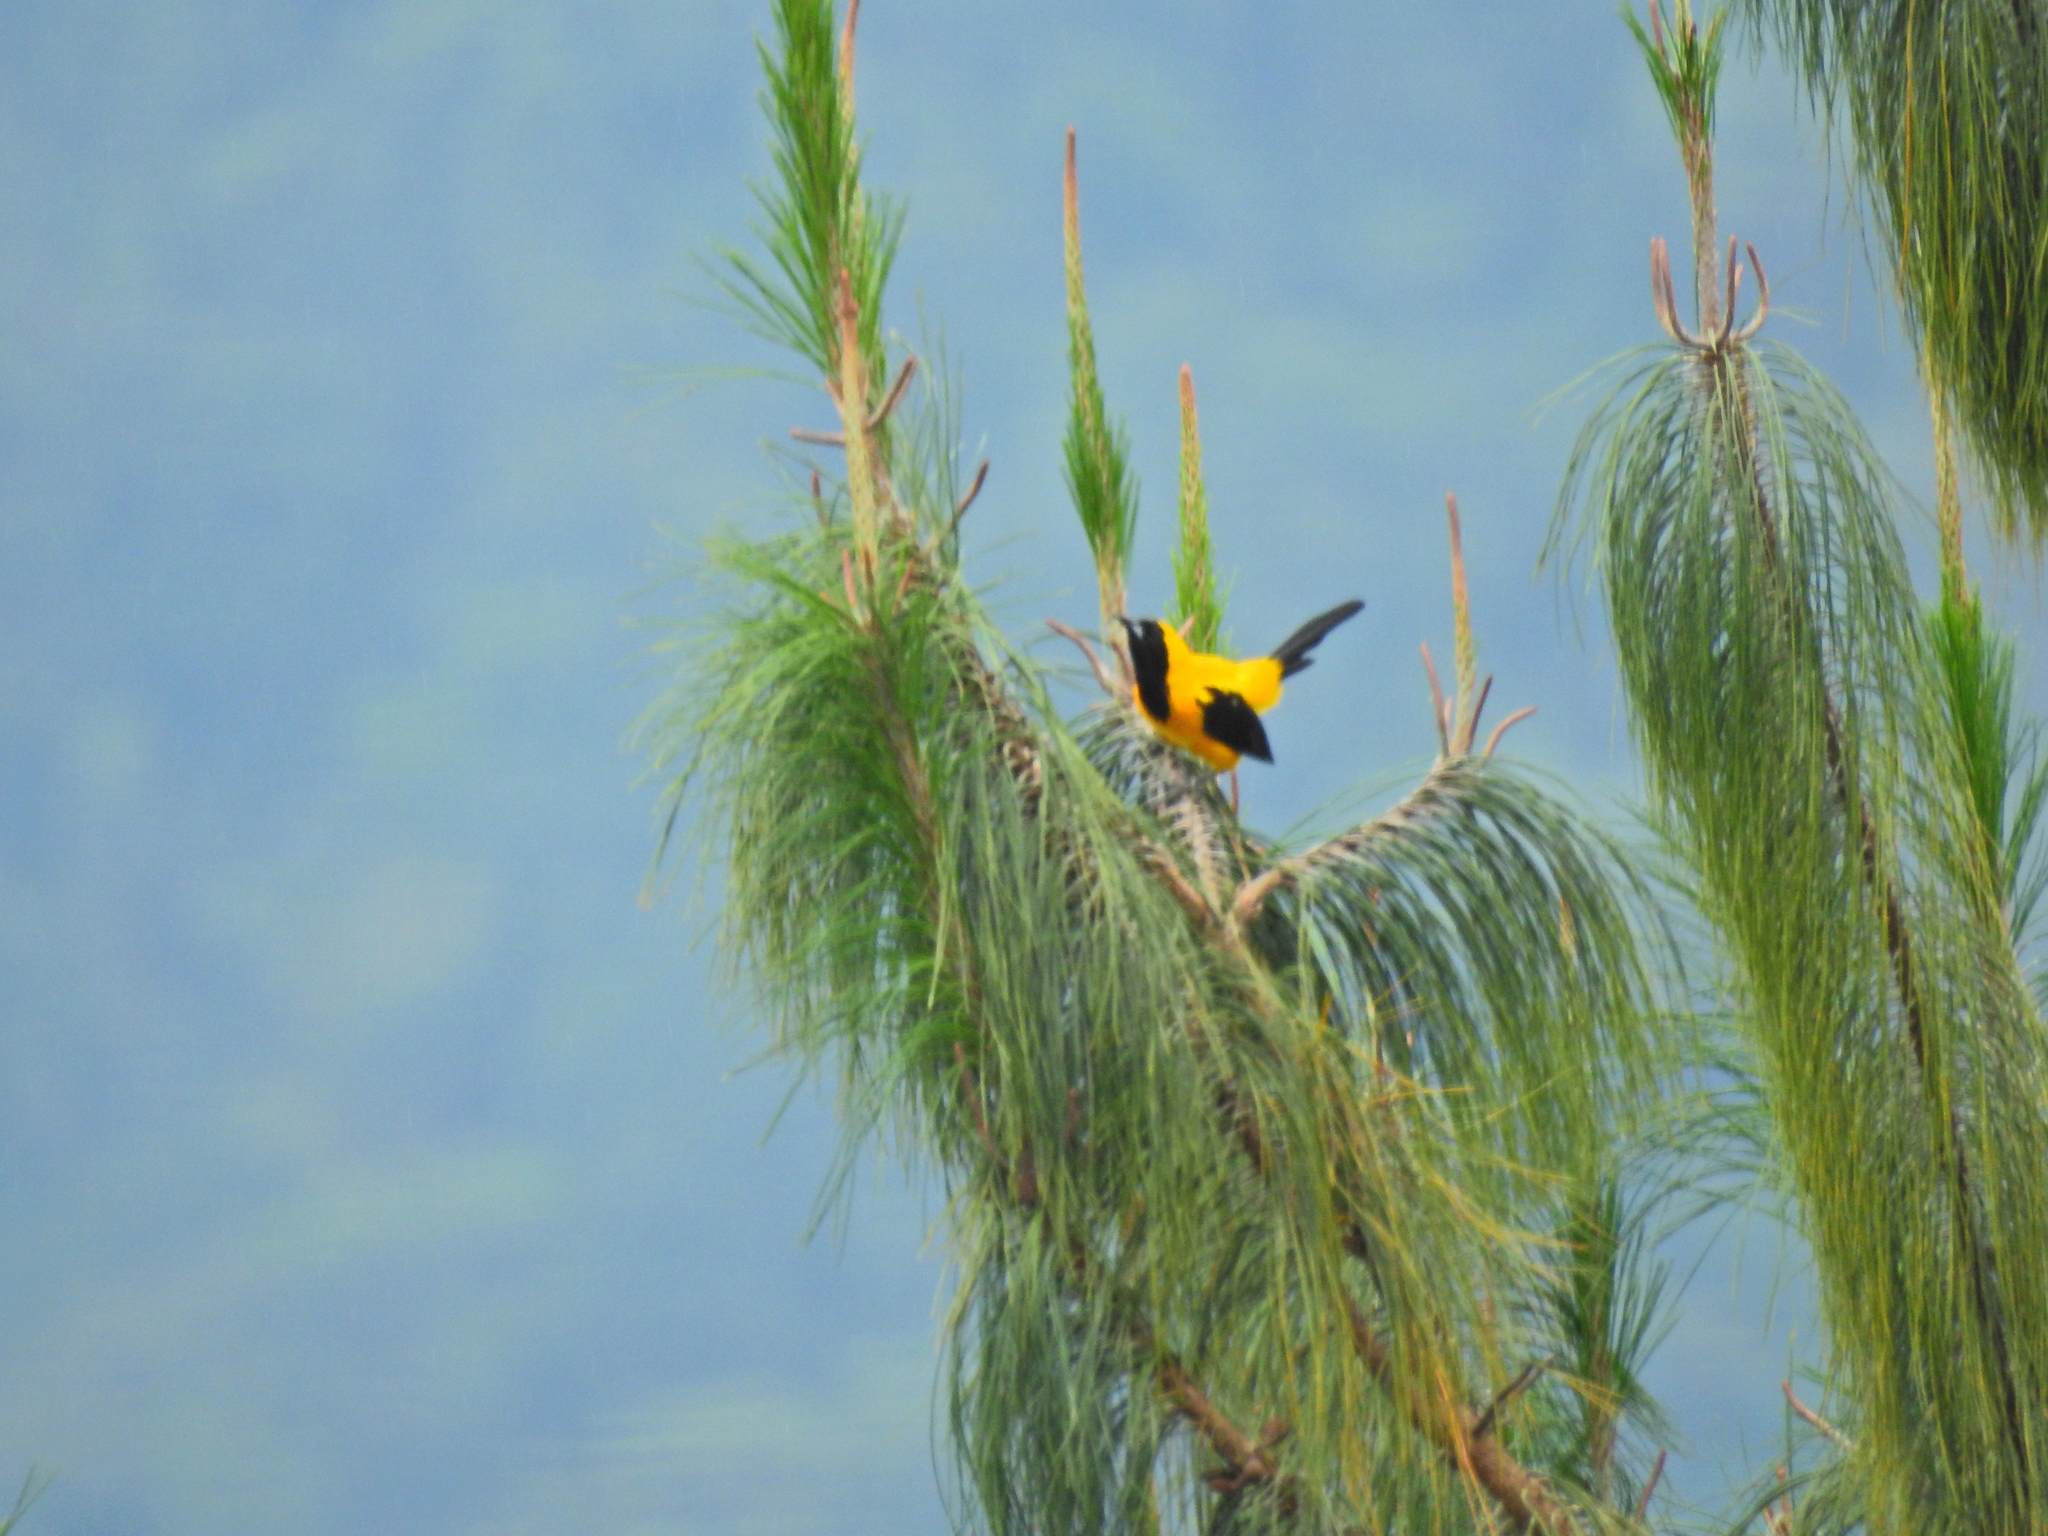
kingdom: Animalia
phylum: Chordata
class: Aves
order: Passeriformes
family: Icteridae
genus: Icterus
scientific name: Icterus chrysater
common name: Yellow-backed oriole
